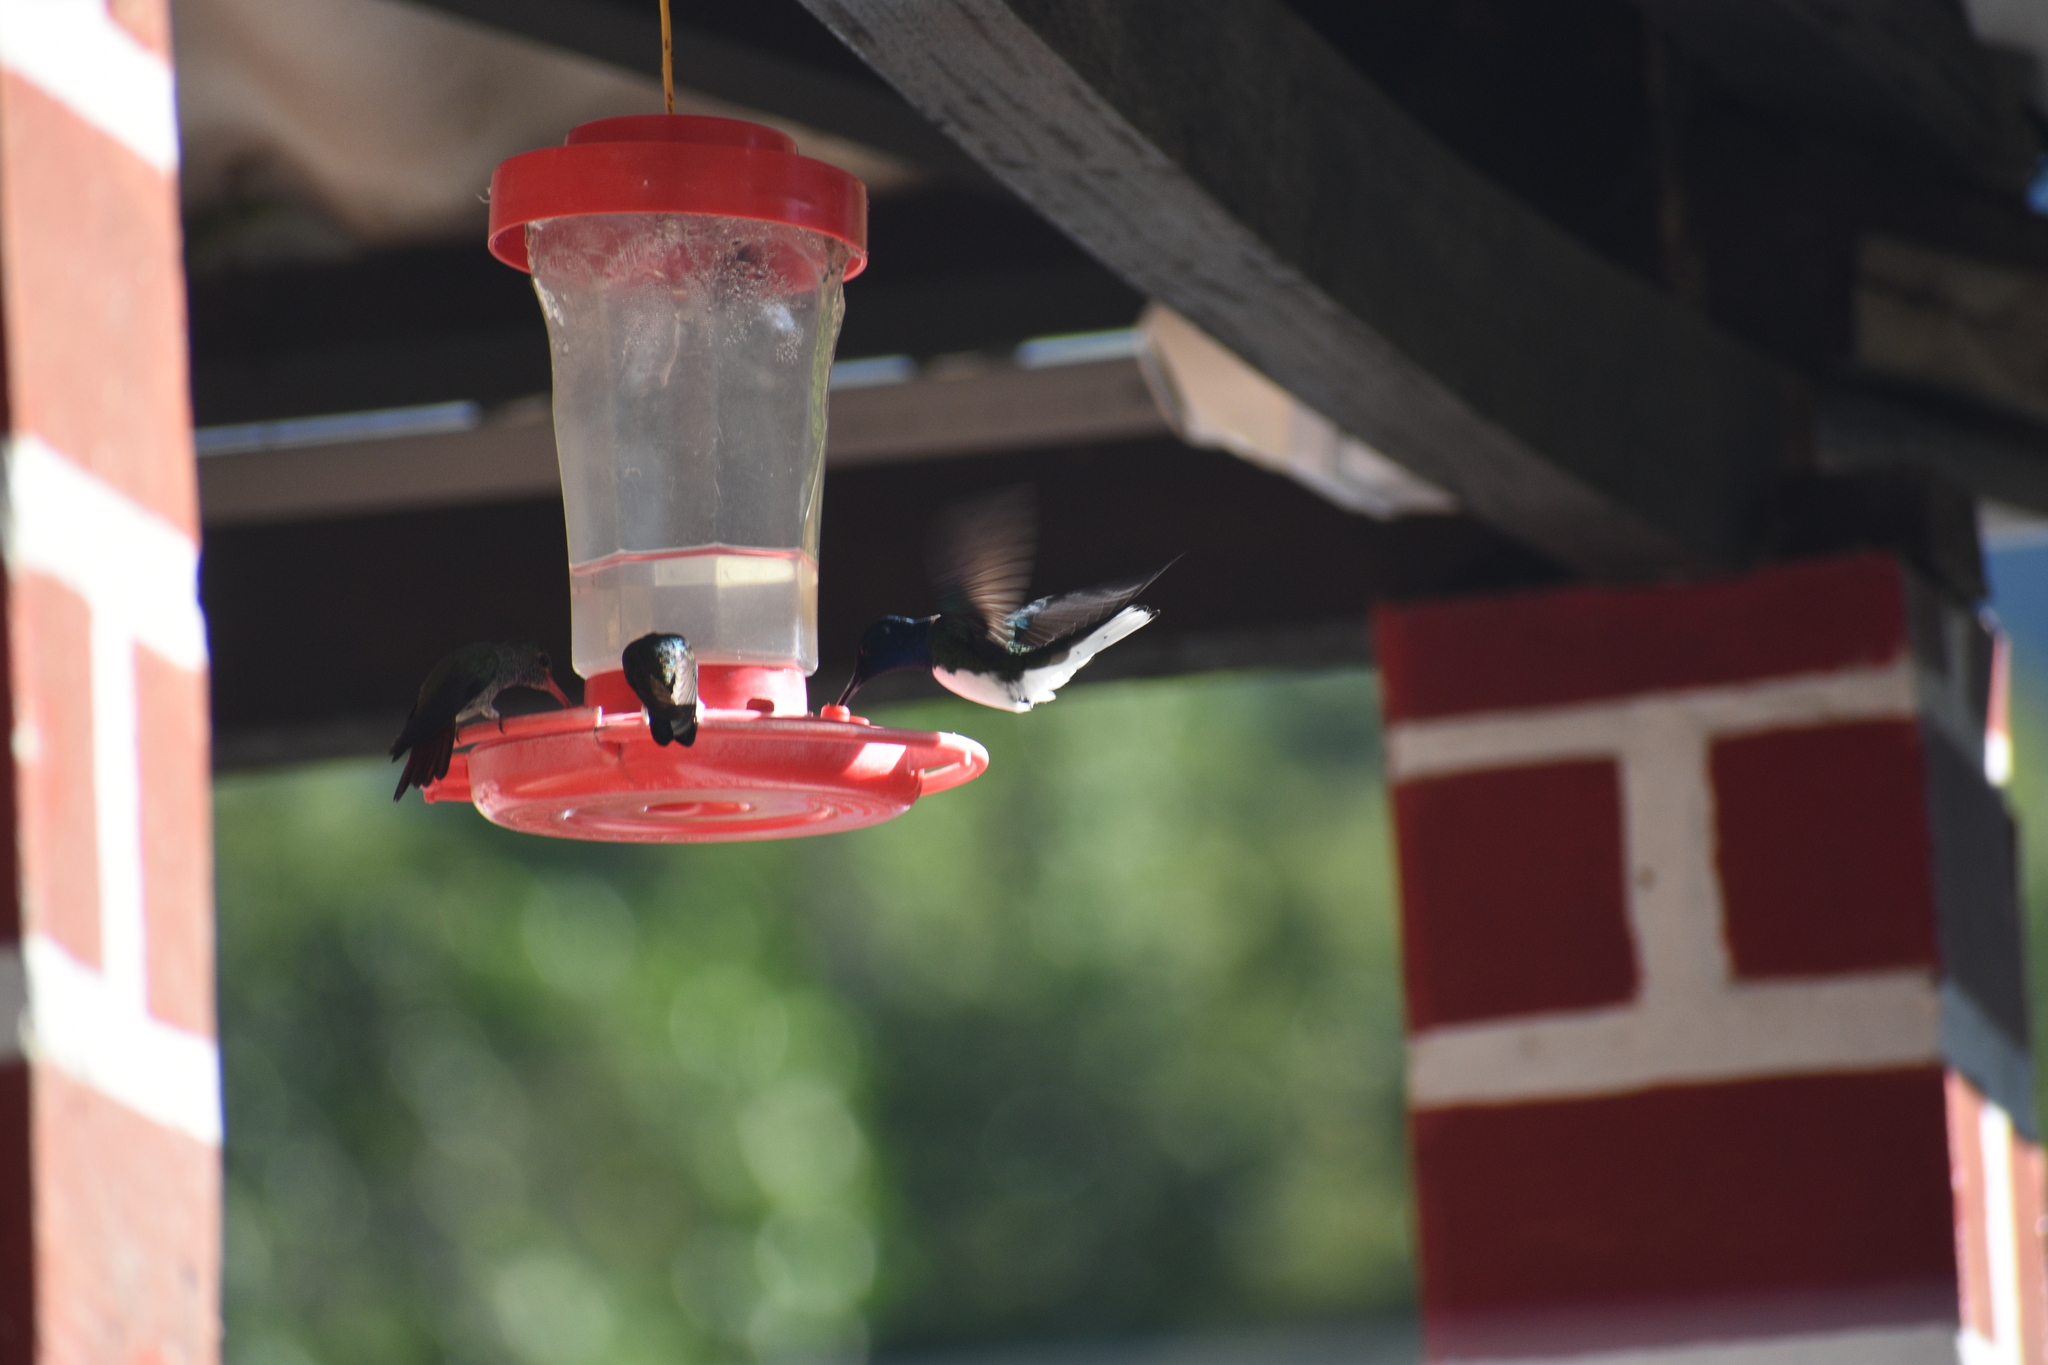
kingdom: Animalia
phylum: Chordata
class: Aves
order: Apodiformes
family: Trochilidae
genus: Florisuga
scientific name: Florisuga mellivora
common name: White-necked jacobin
